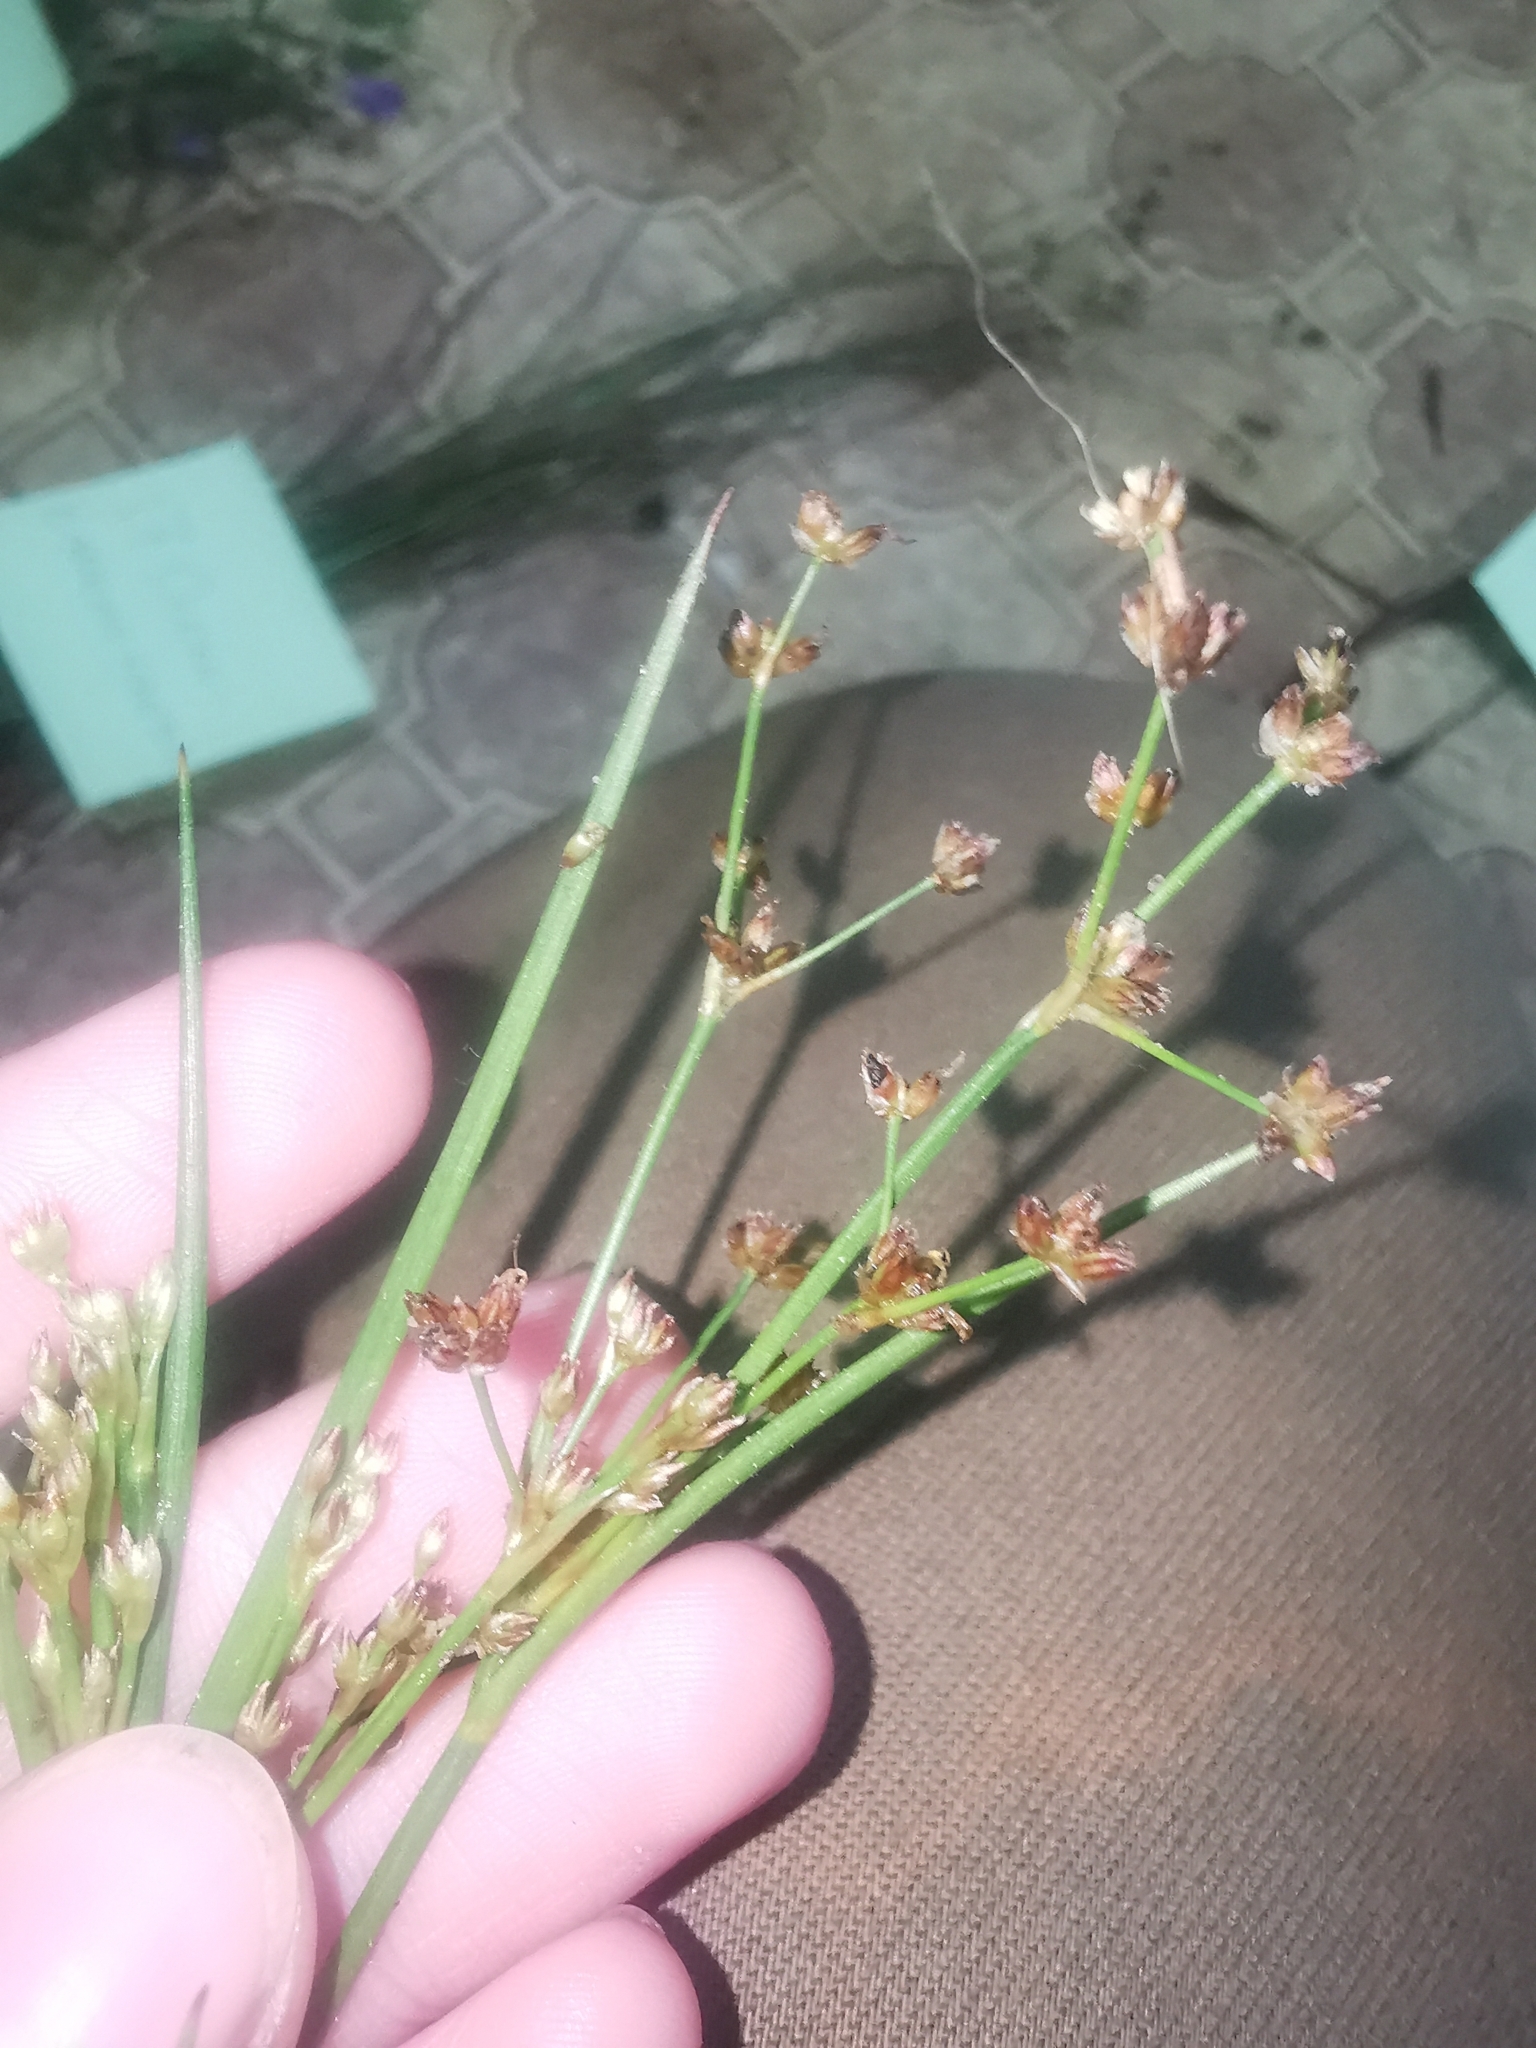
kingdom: Plantae
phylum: Tracheophyta
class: Liliopsida
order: Poales
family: Juncaceae
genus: Juncus
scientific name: Juncus articulatus
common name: Jointed rush
